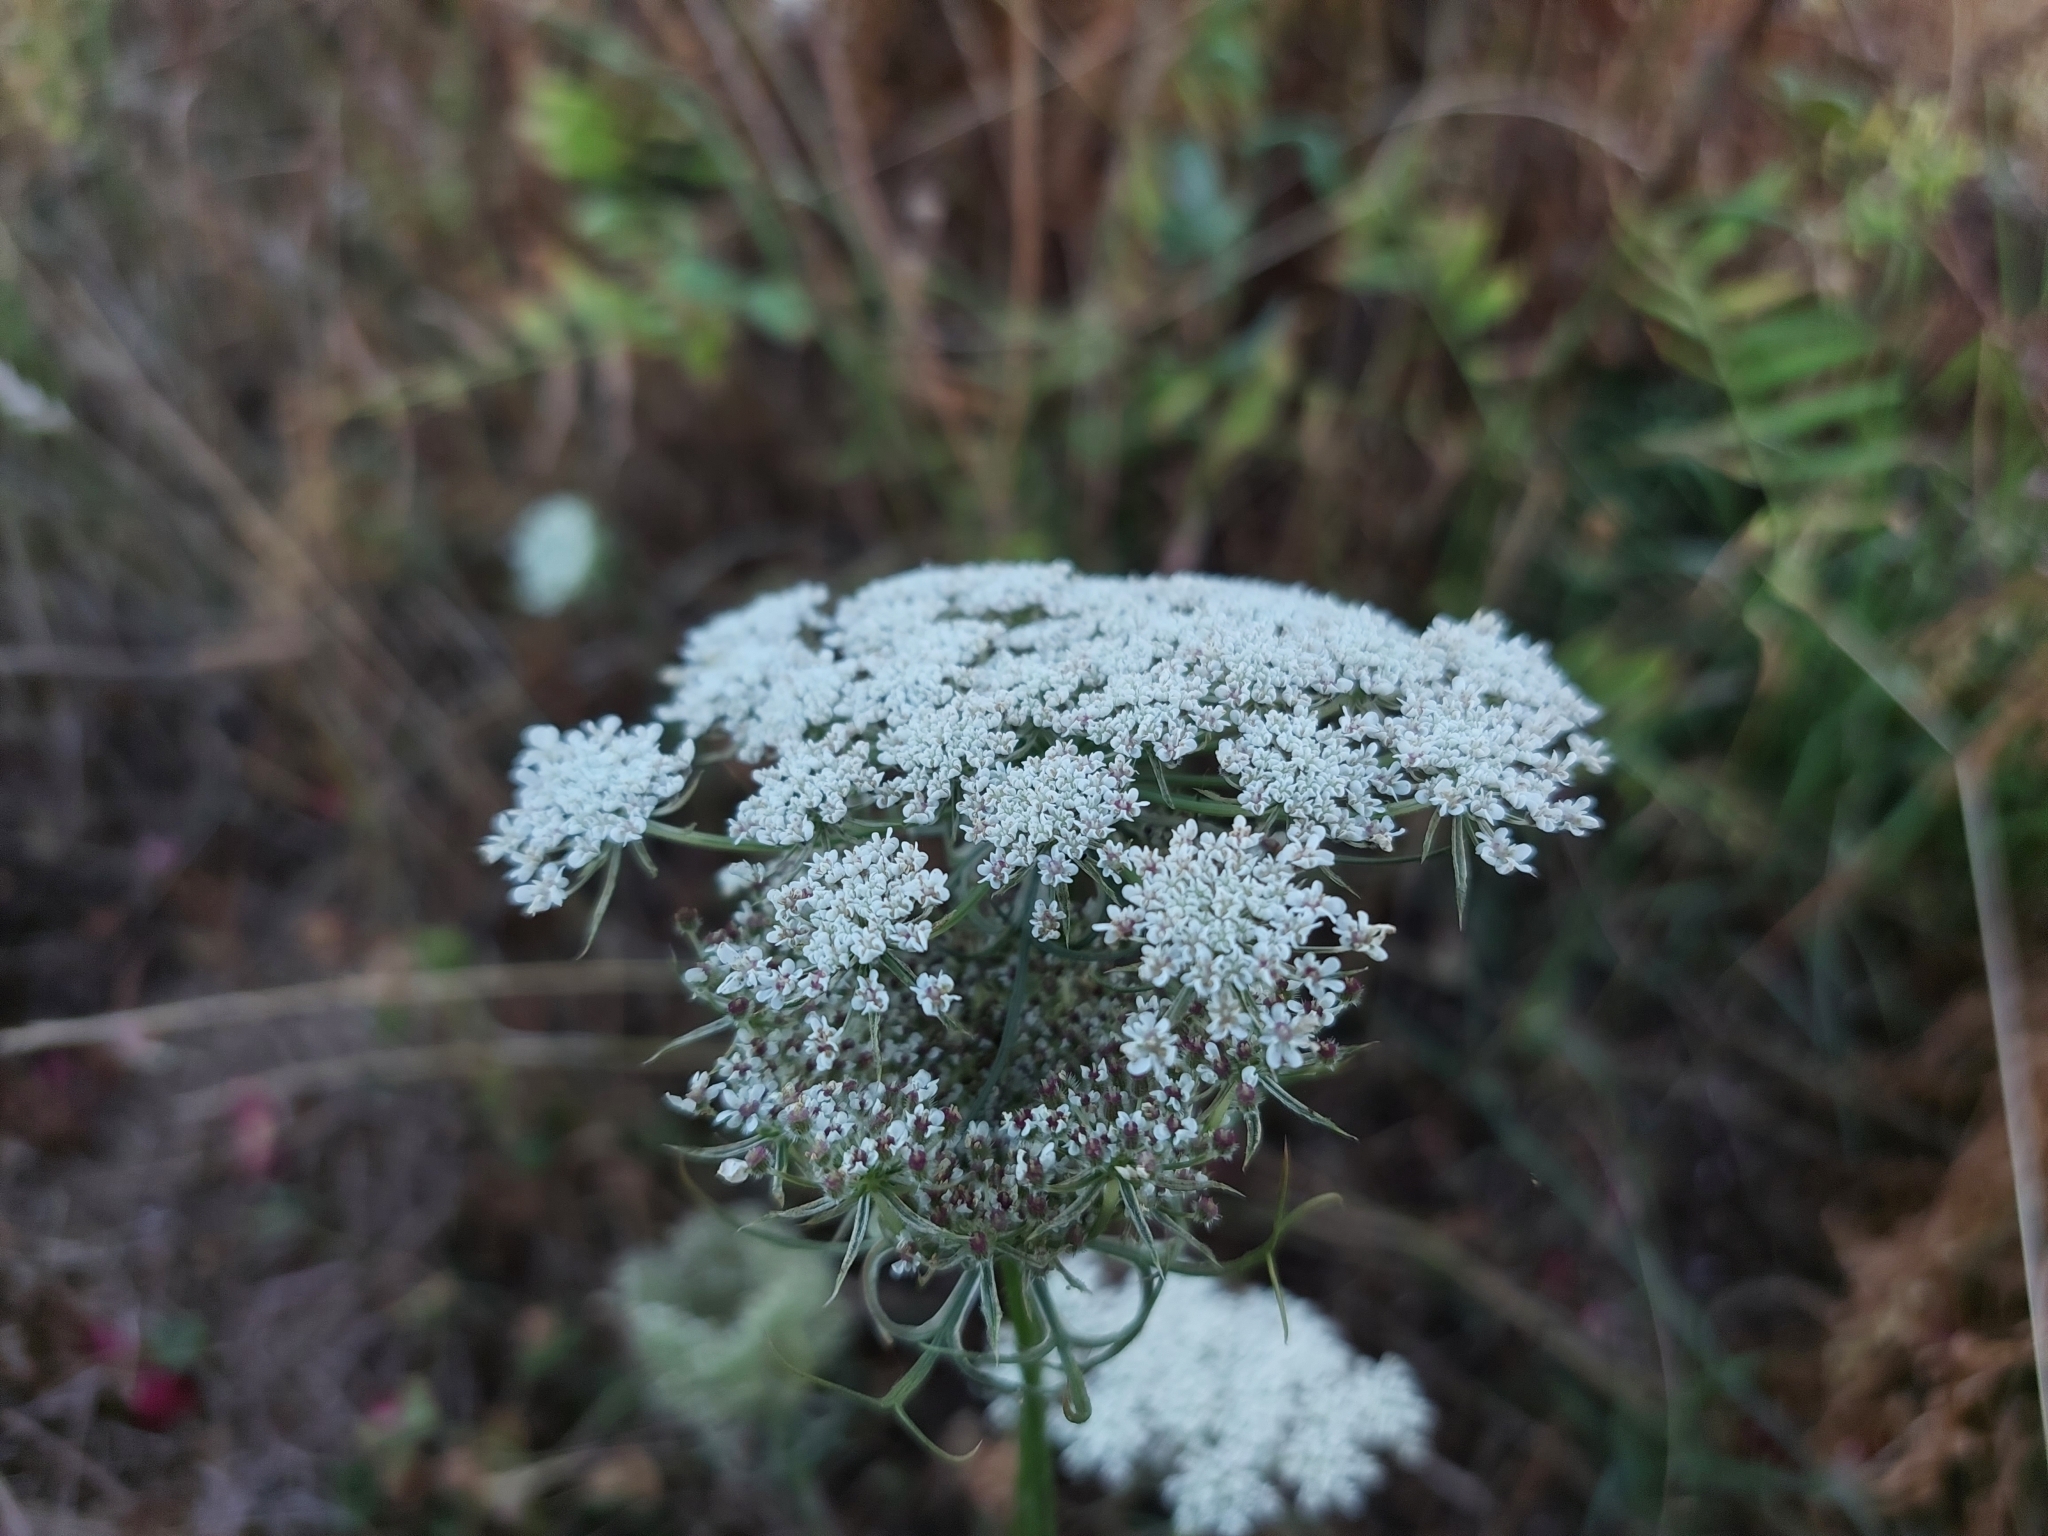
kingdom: Plantae
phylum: Tracheophyta
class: Magnoliopsida
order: Apiales
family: Apiaceae
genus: Daucus
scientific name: Daucus carota
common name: Wild carrot
